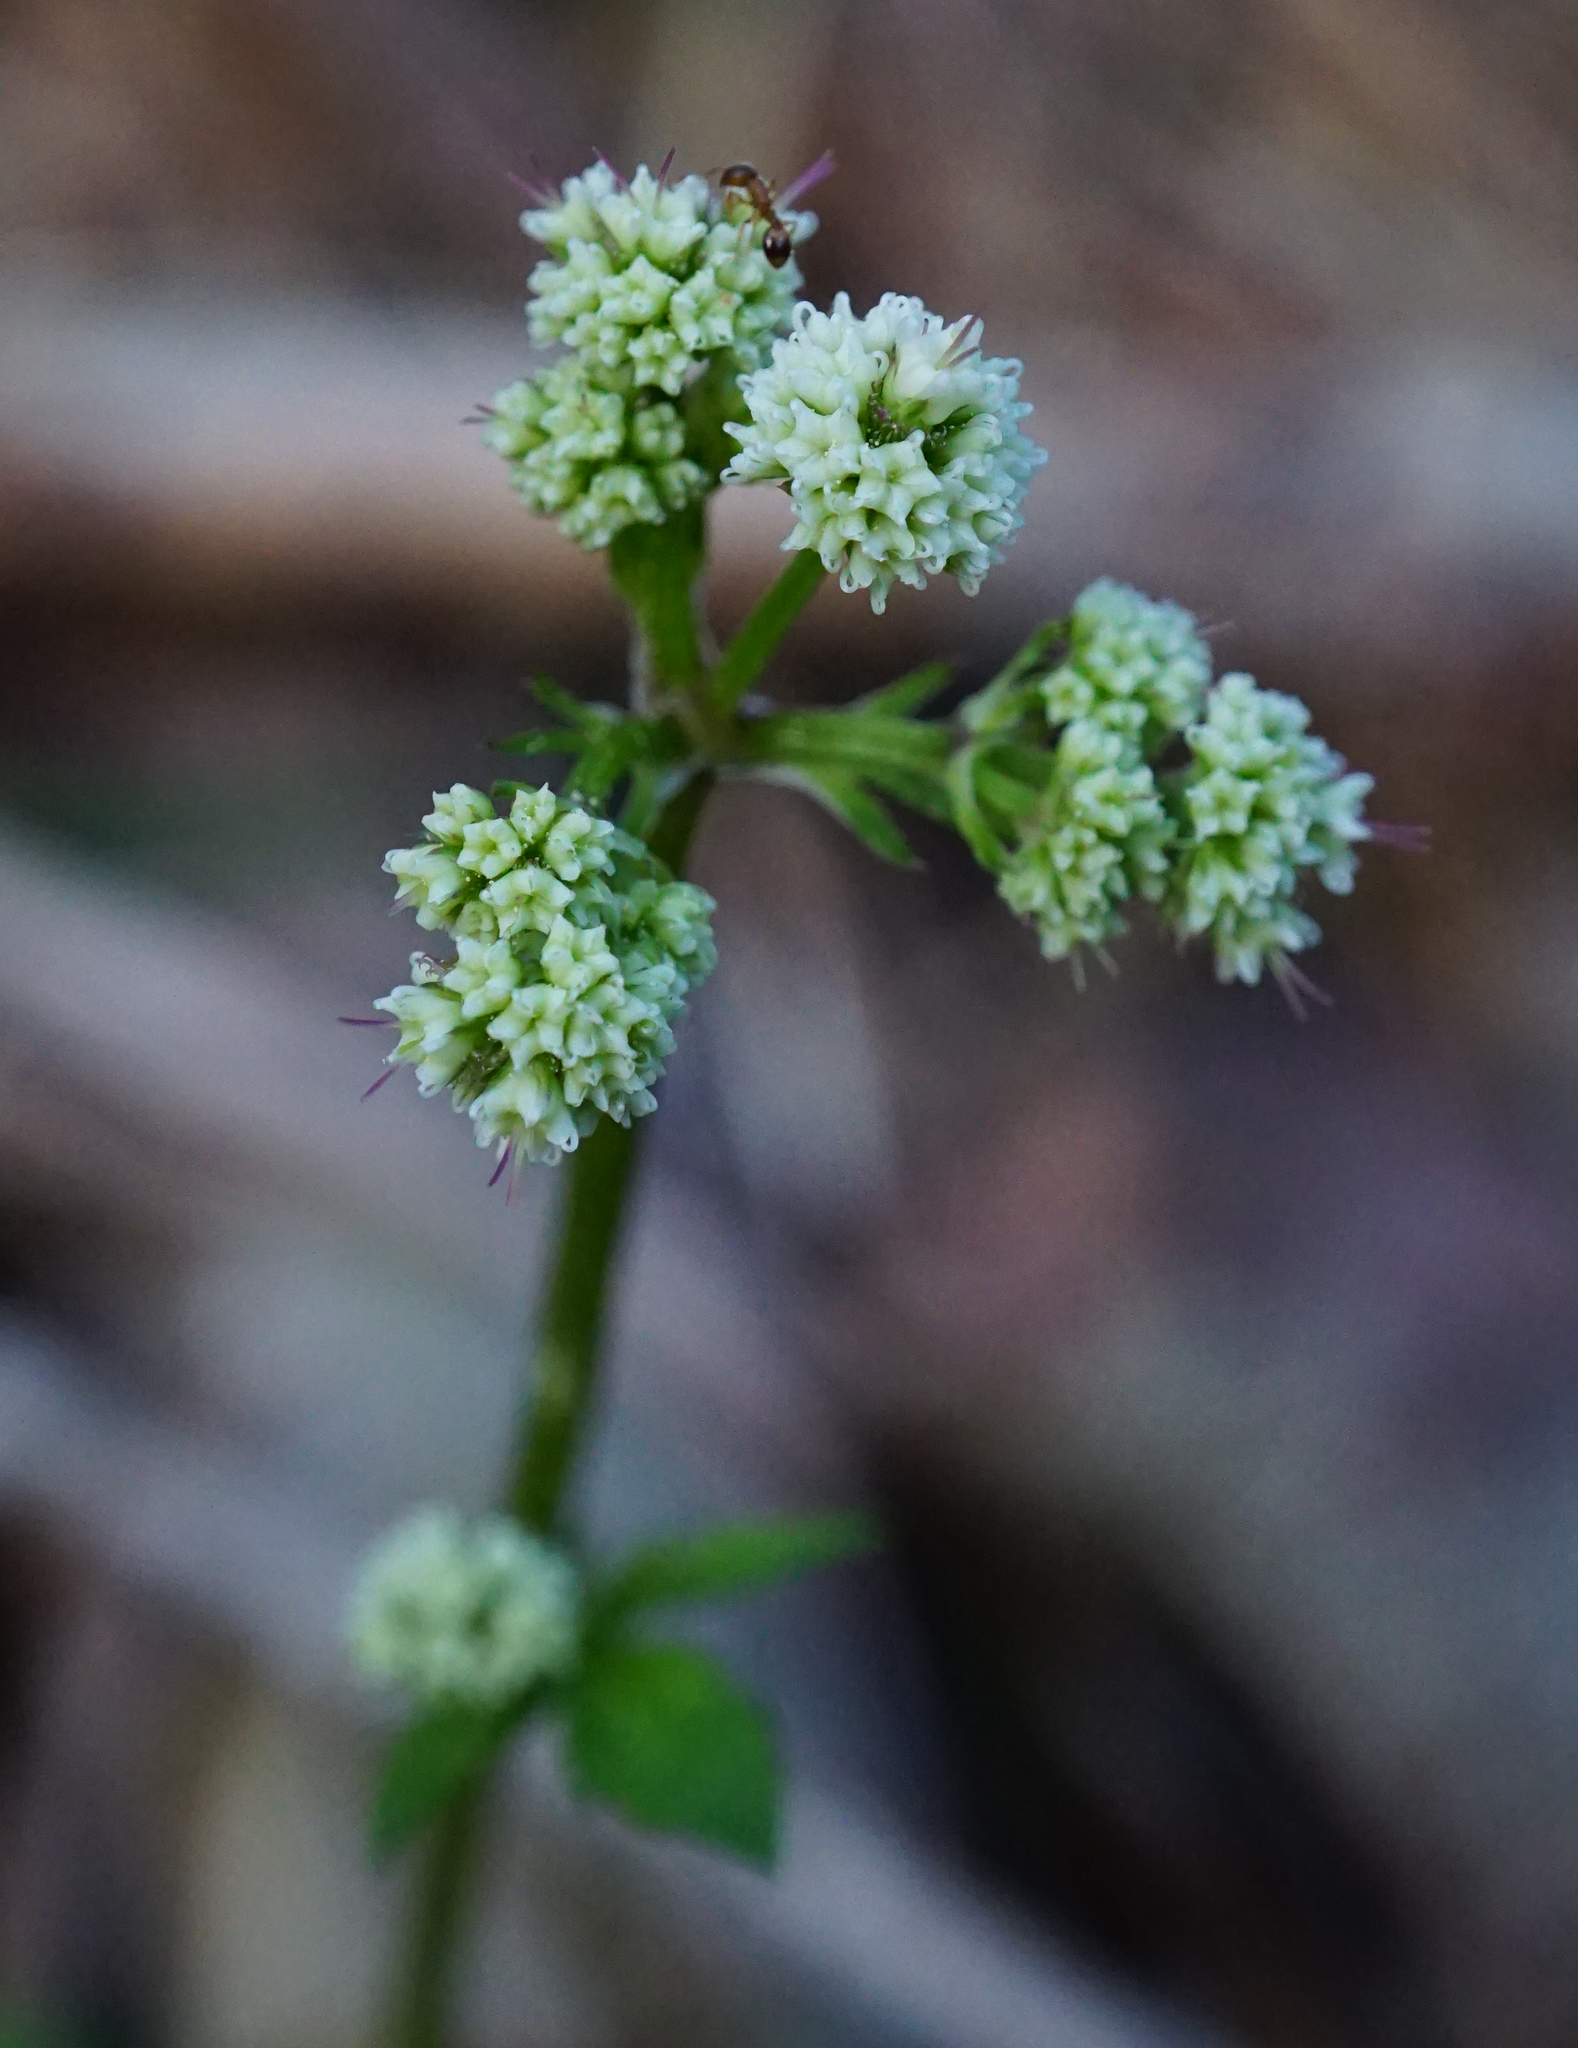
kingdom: Plantae
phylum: Tracheophyta
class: Magnoliopsida
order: Apiales
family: Apiaceae
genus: Sanicula
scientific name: Sanicula europaea
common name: Sanicle
